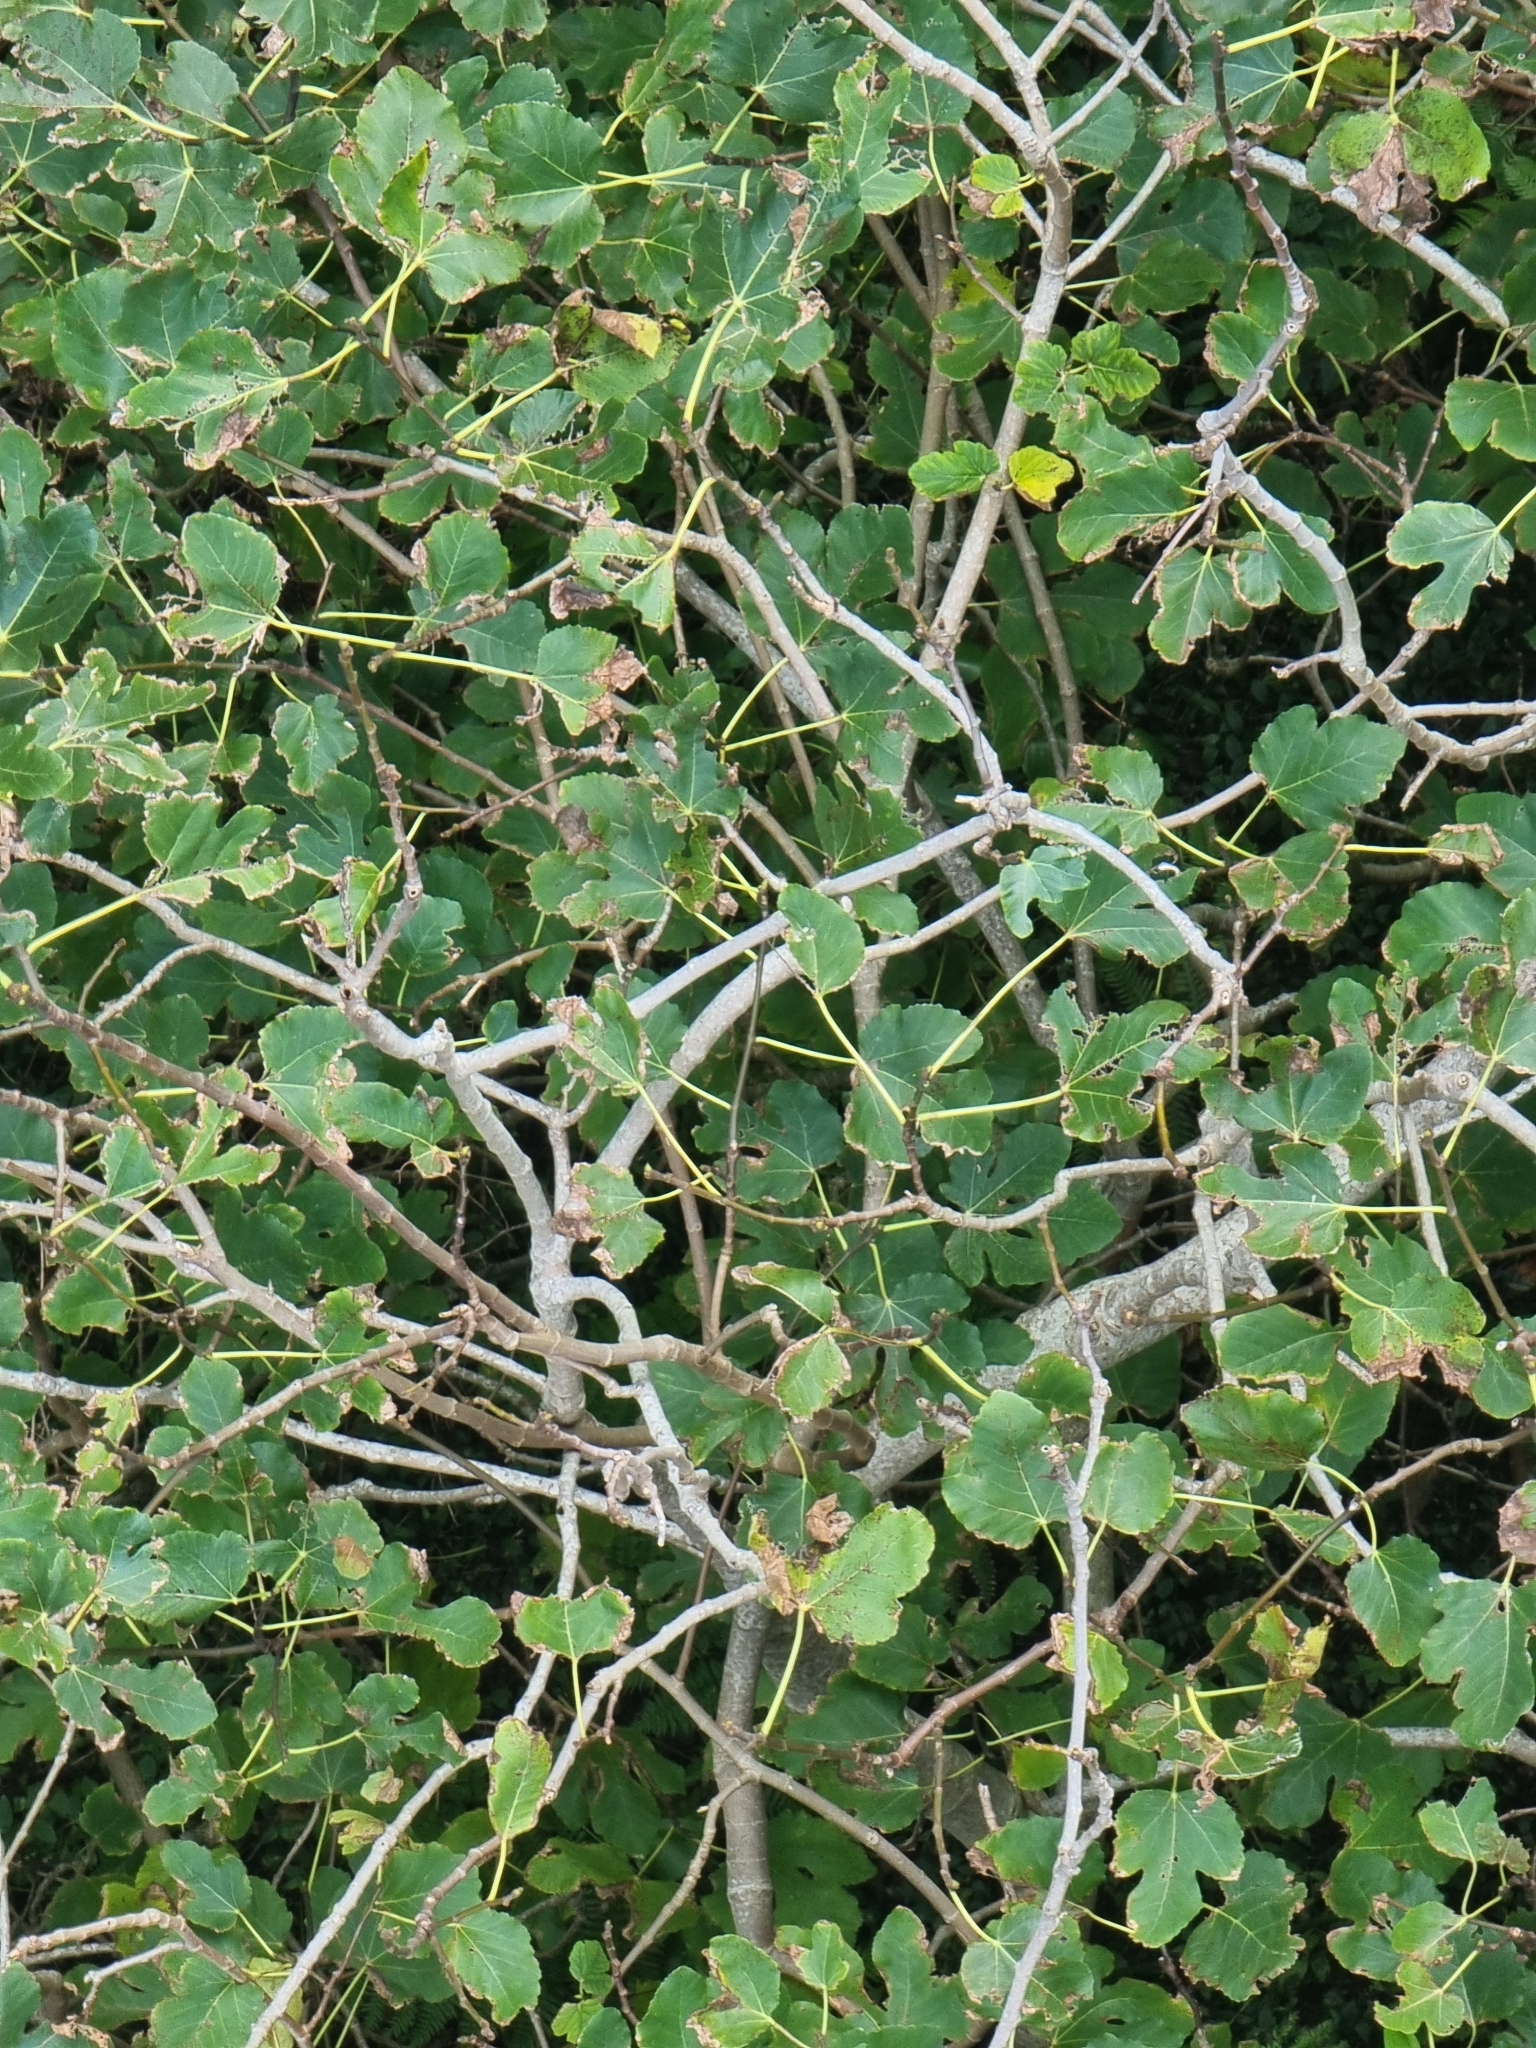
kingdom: Plantae
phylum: Tracheophyta
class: Magnoliopsida
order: Rosales
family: Moraceae
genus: Ficus
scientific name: Ficus carica
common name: Fig
